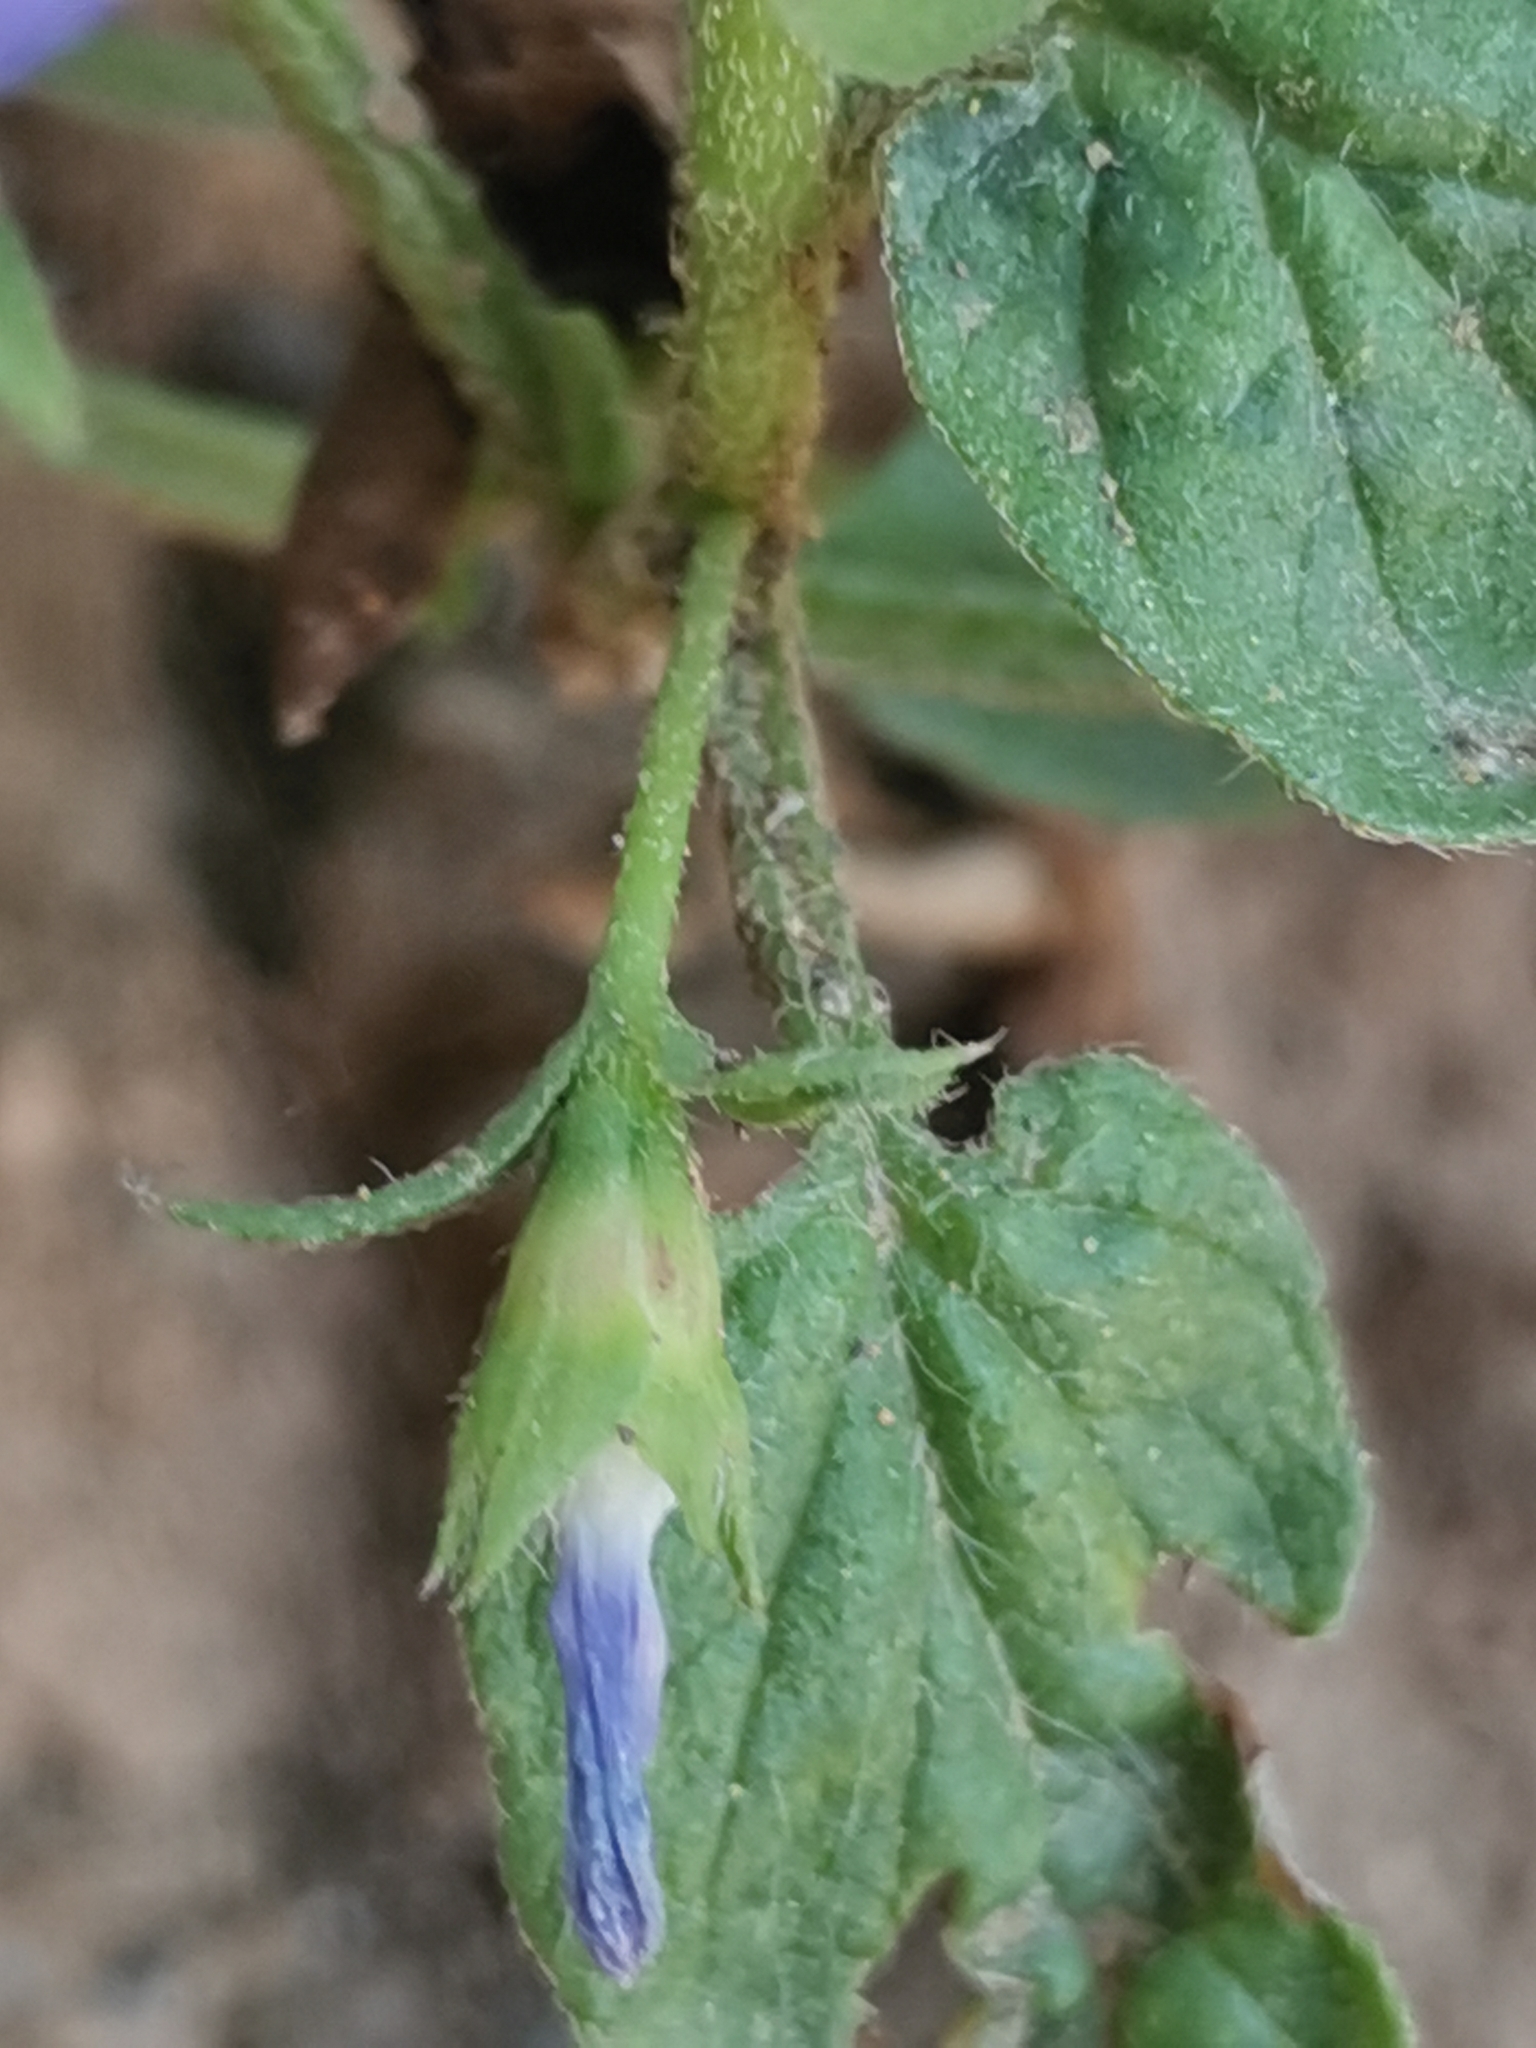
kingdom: Plantae
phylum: Tracheophyta
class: Magnoliopsida
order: Solanales
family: Convolvulaceae
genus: Convolvulus
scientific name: Convolvulus siculus
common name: Small blue-convolvulus
